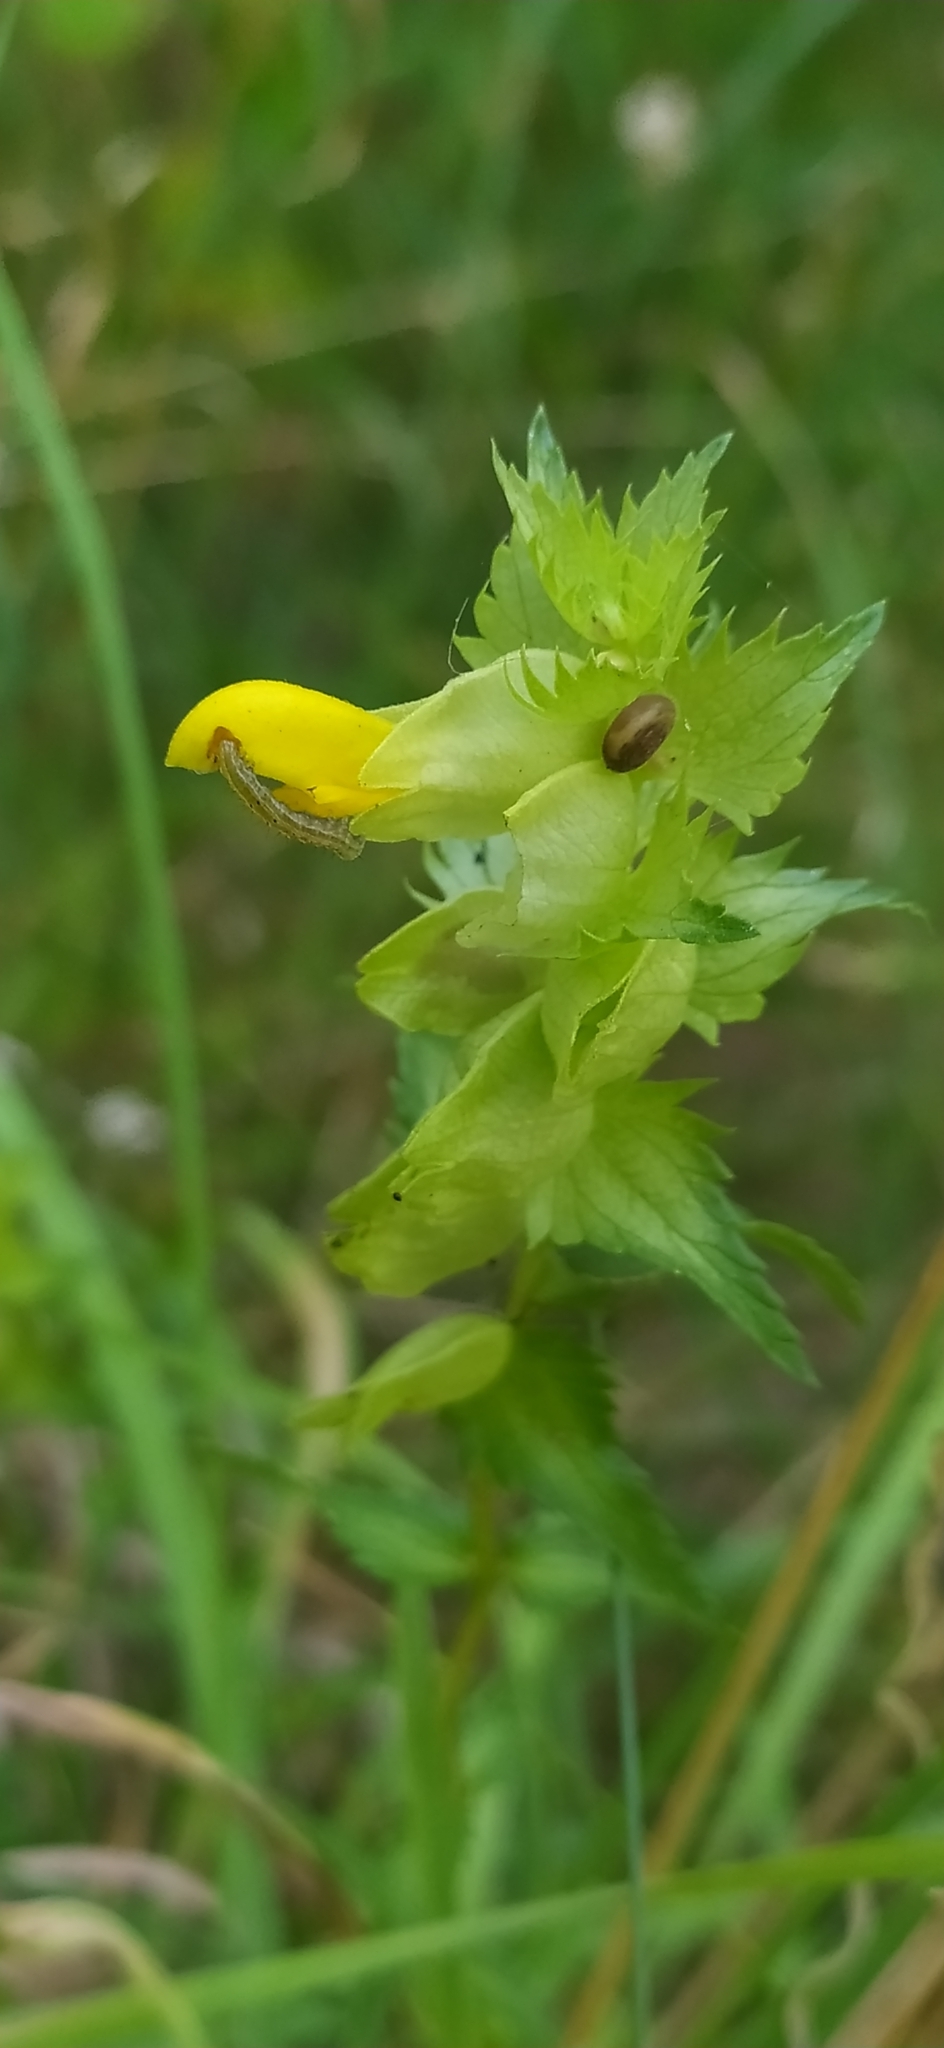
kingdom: Plantae
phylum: Tracheophyta
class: Magnoliopsida
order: Lamiales
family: Orobanchaceae
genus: Rhinanthus
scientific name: Rhinanthus serotinus
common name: Late-flowering yellow rattle
